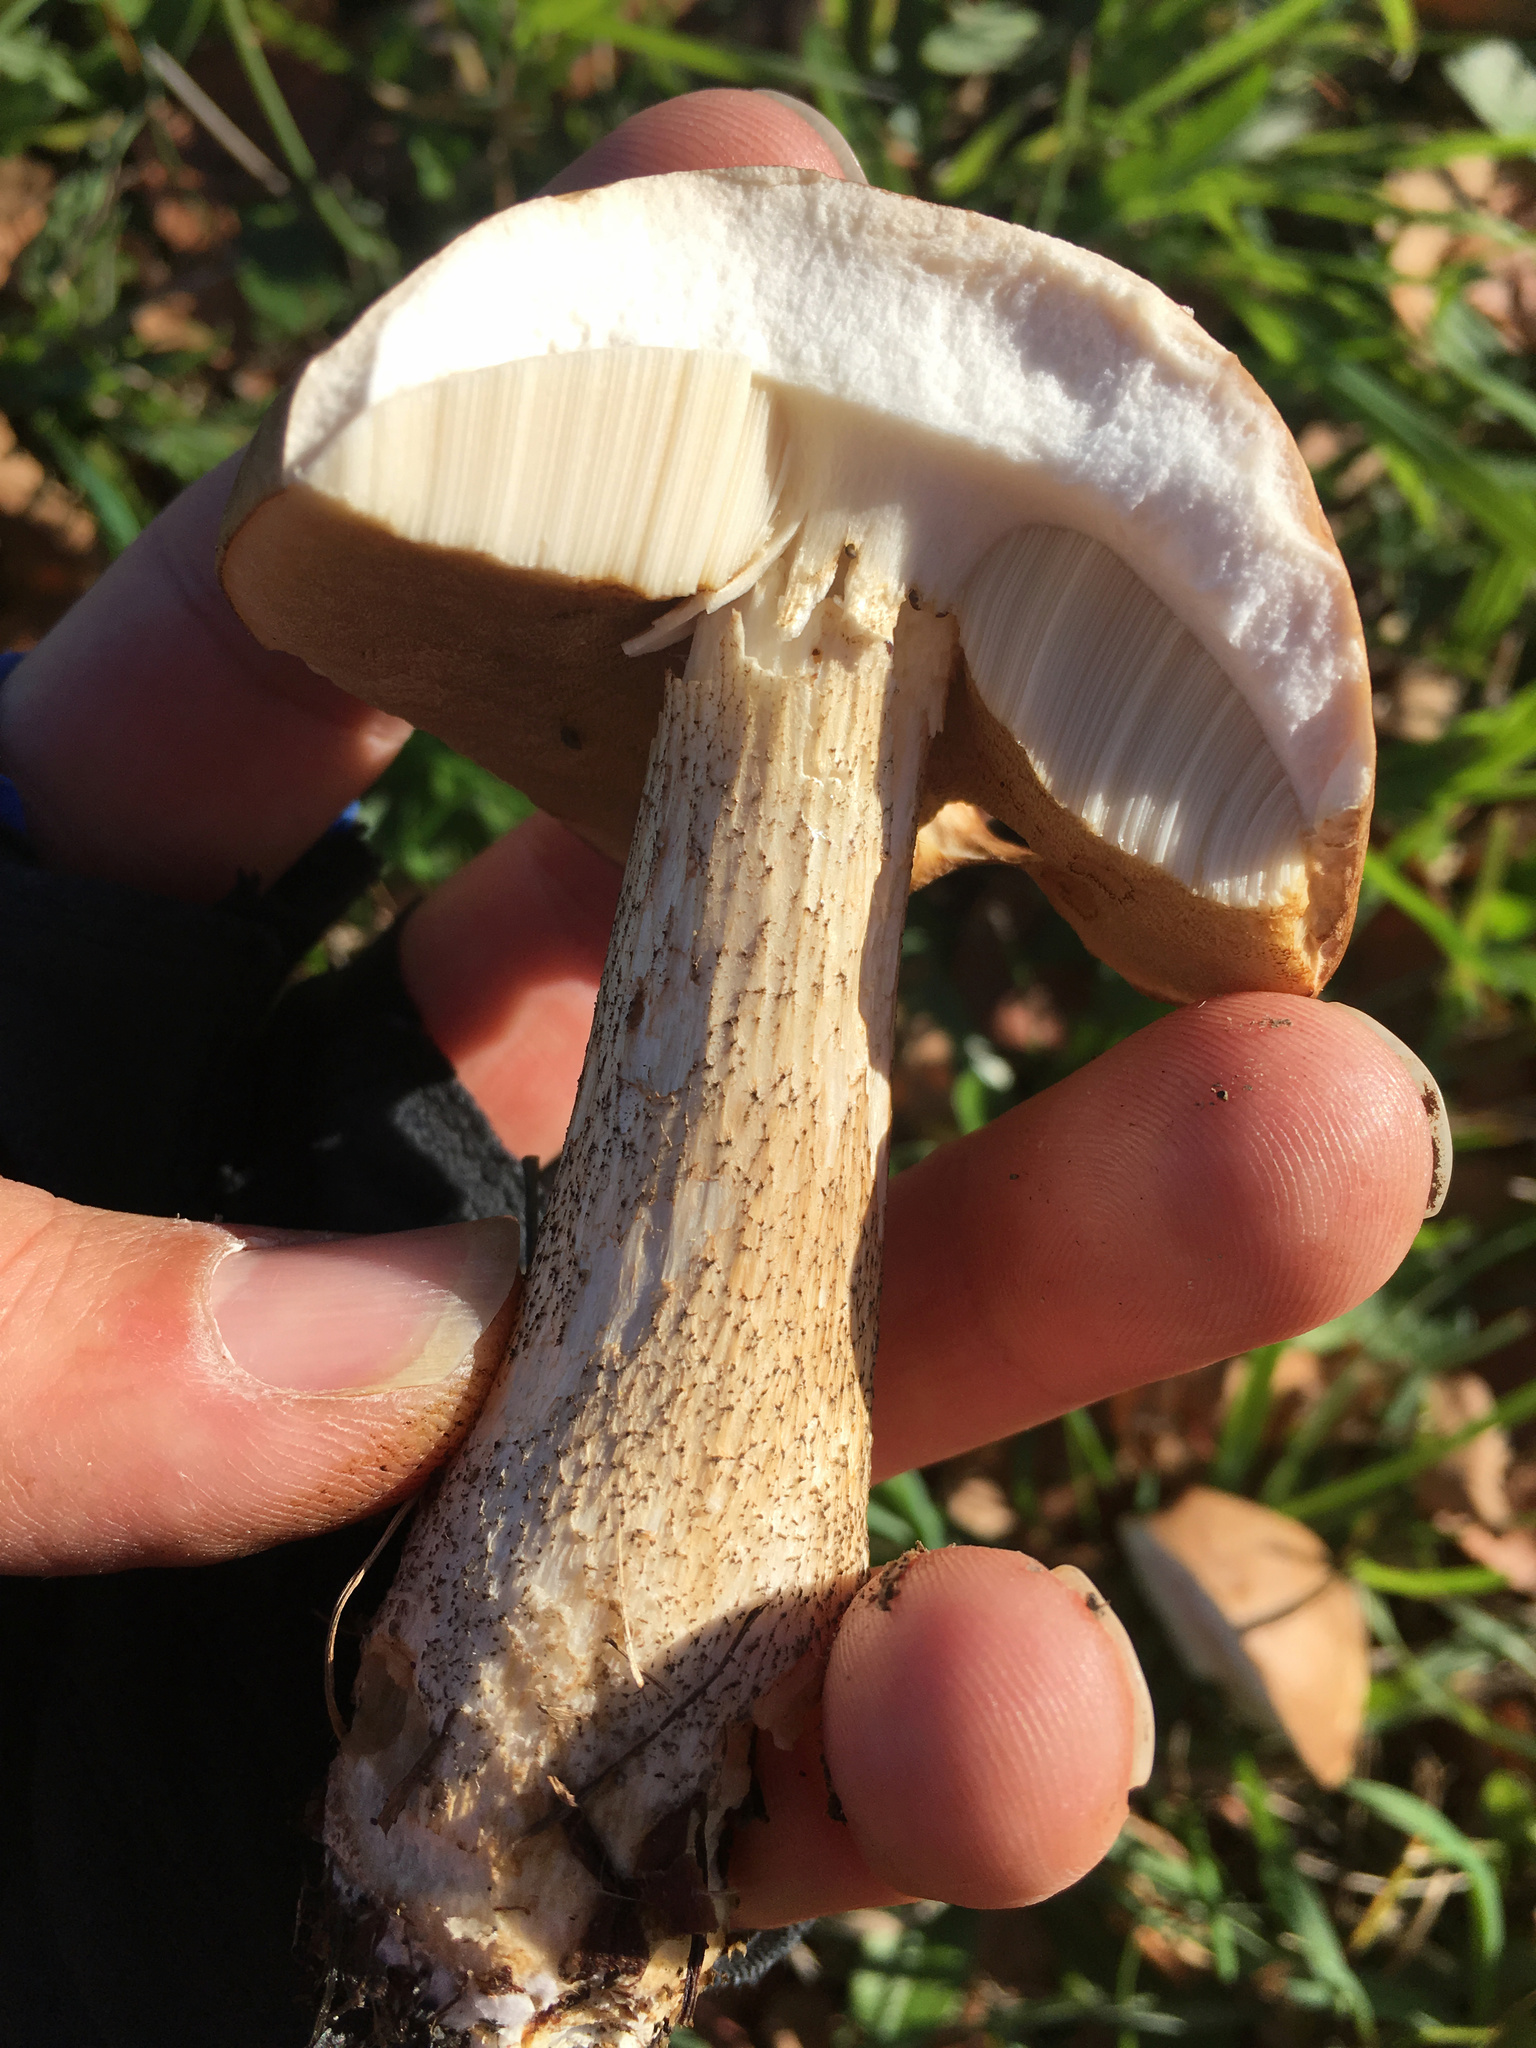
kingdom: Fungi
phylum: Basidiomycota
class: Agaricomycetes
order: Boletales
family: Boletaceae
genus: Leccinum
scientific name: Leccinum scabrum
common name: Blushing bolete
